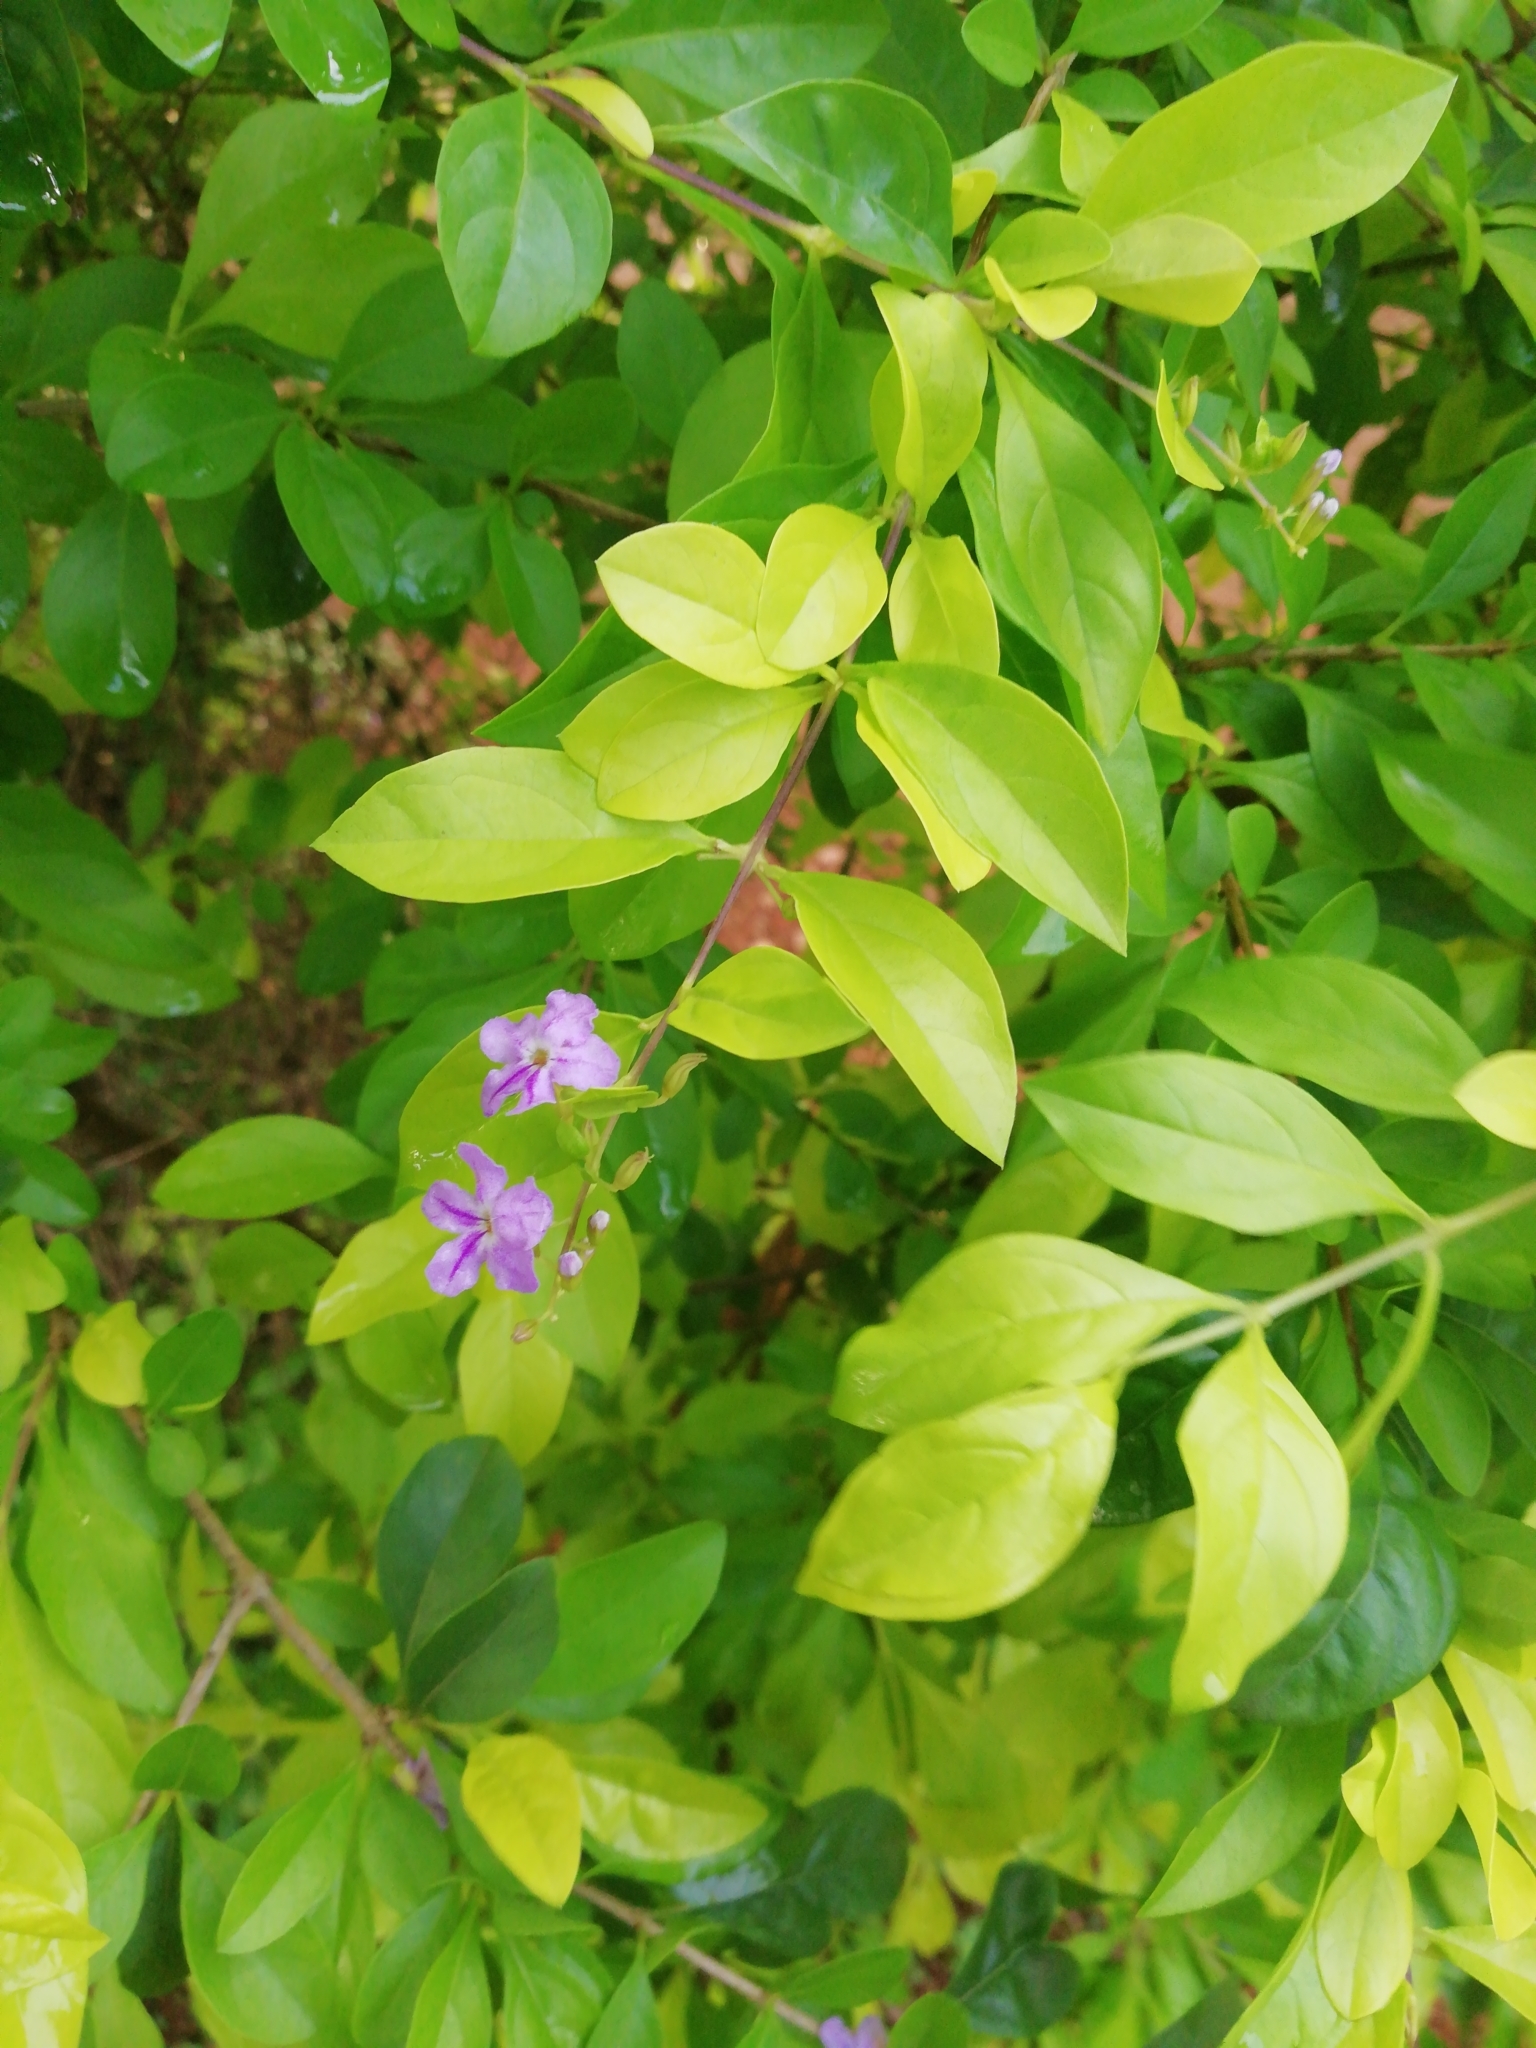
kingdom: Plantae
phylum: Tracheophyta
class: Magnoliopsida
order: Lamiales
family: Verbenaceae
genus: Duranta
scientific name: Duranta erecta
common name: Golden dewdrops
